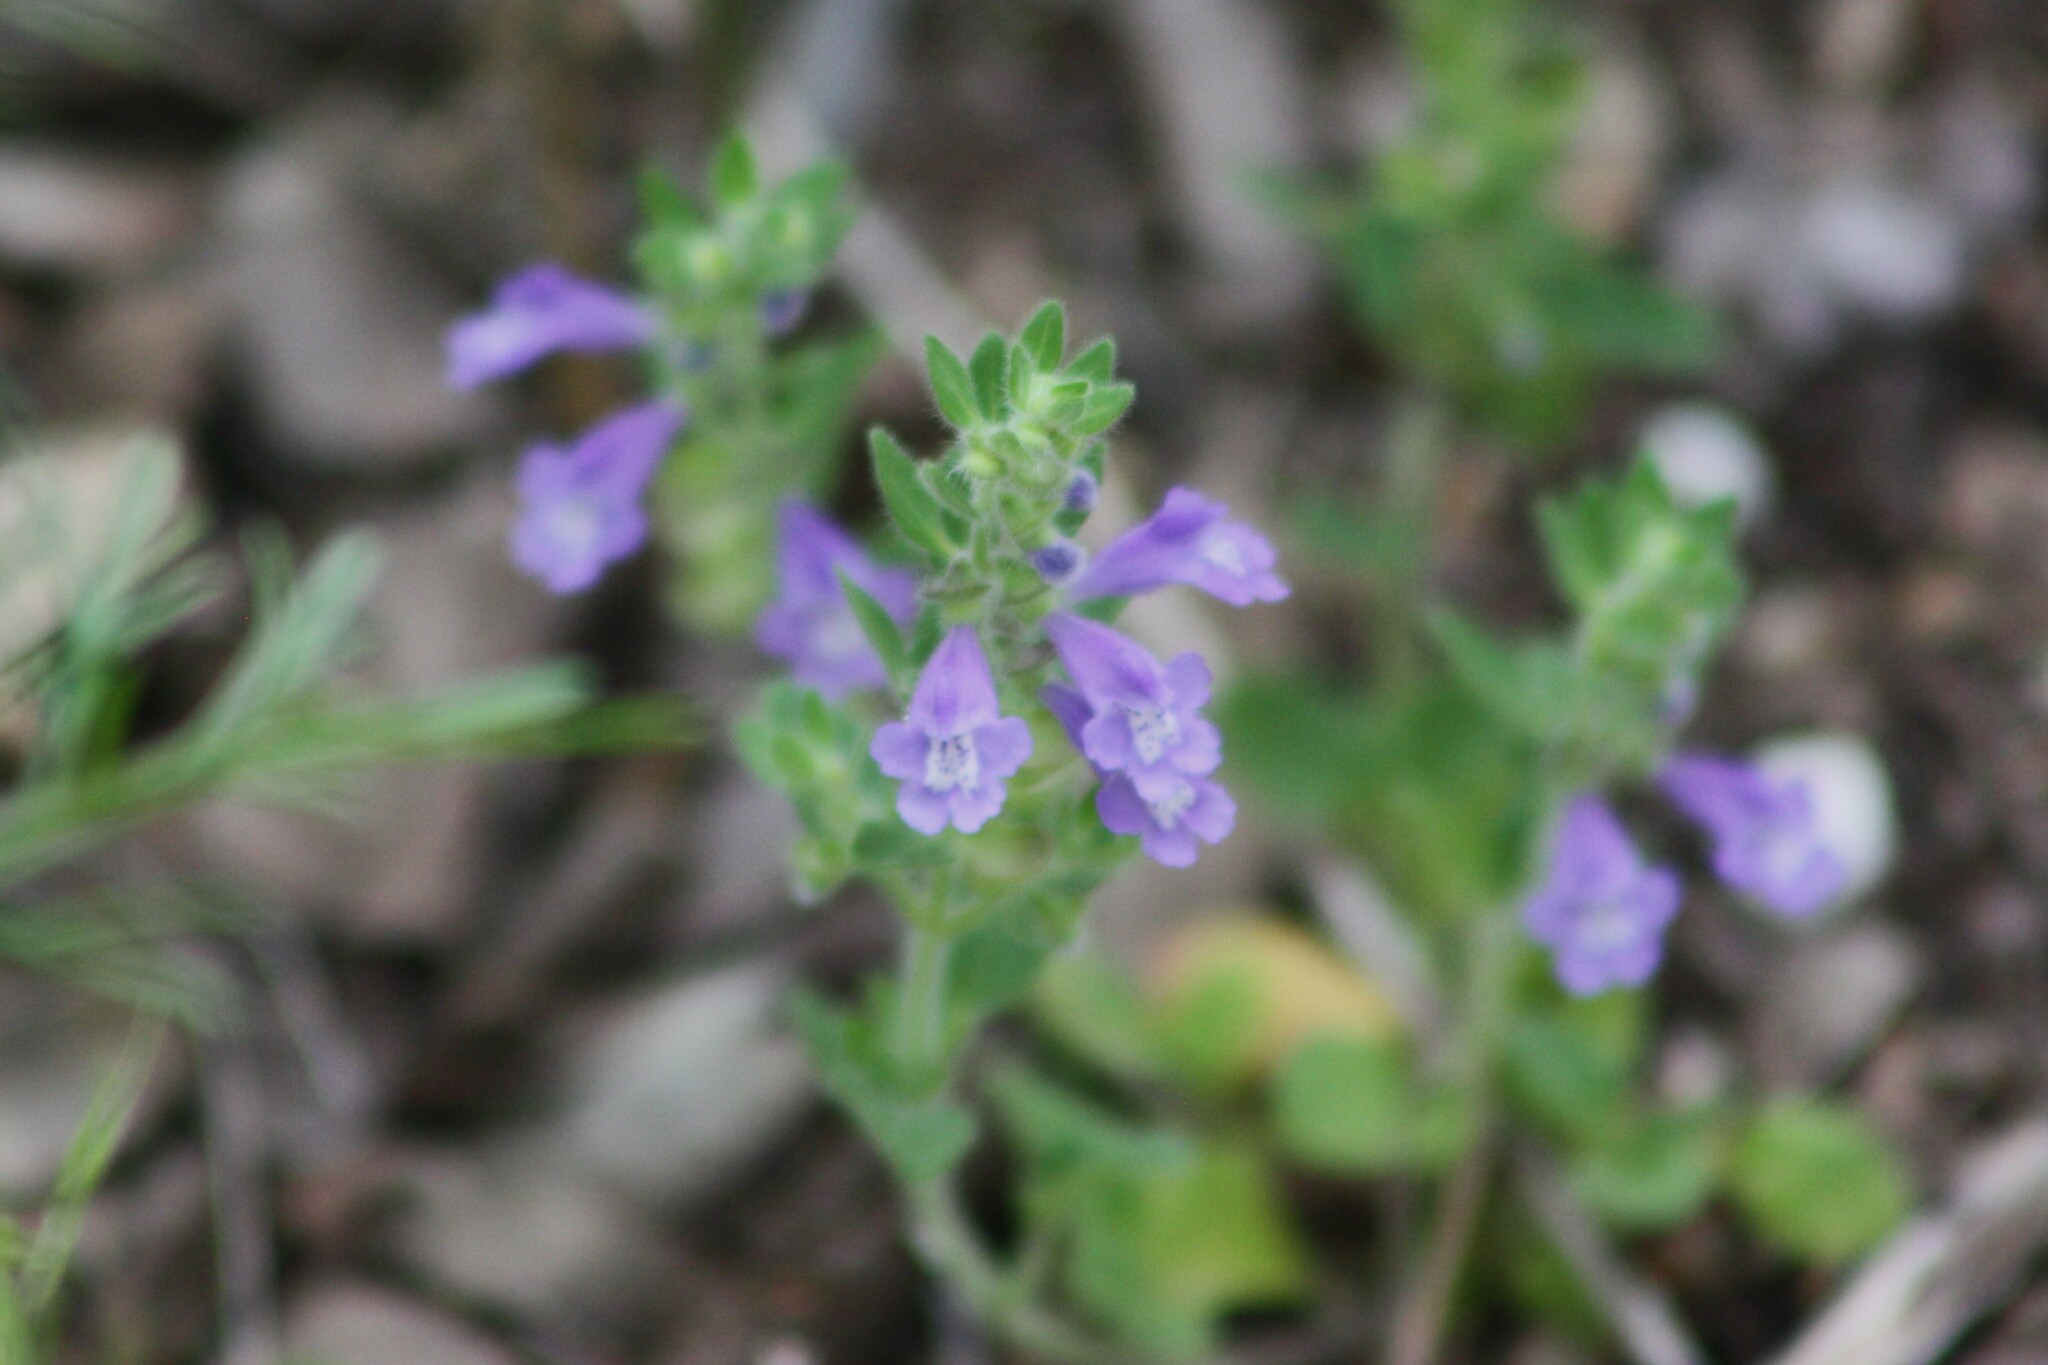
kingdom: Plantae
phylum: Tracheophyta
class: Magnoliopsida
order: Lamiales
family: Lamiaceae
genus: Scutellaria
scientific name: Scutellaria drummondii
